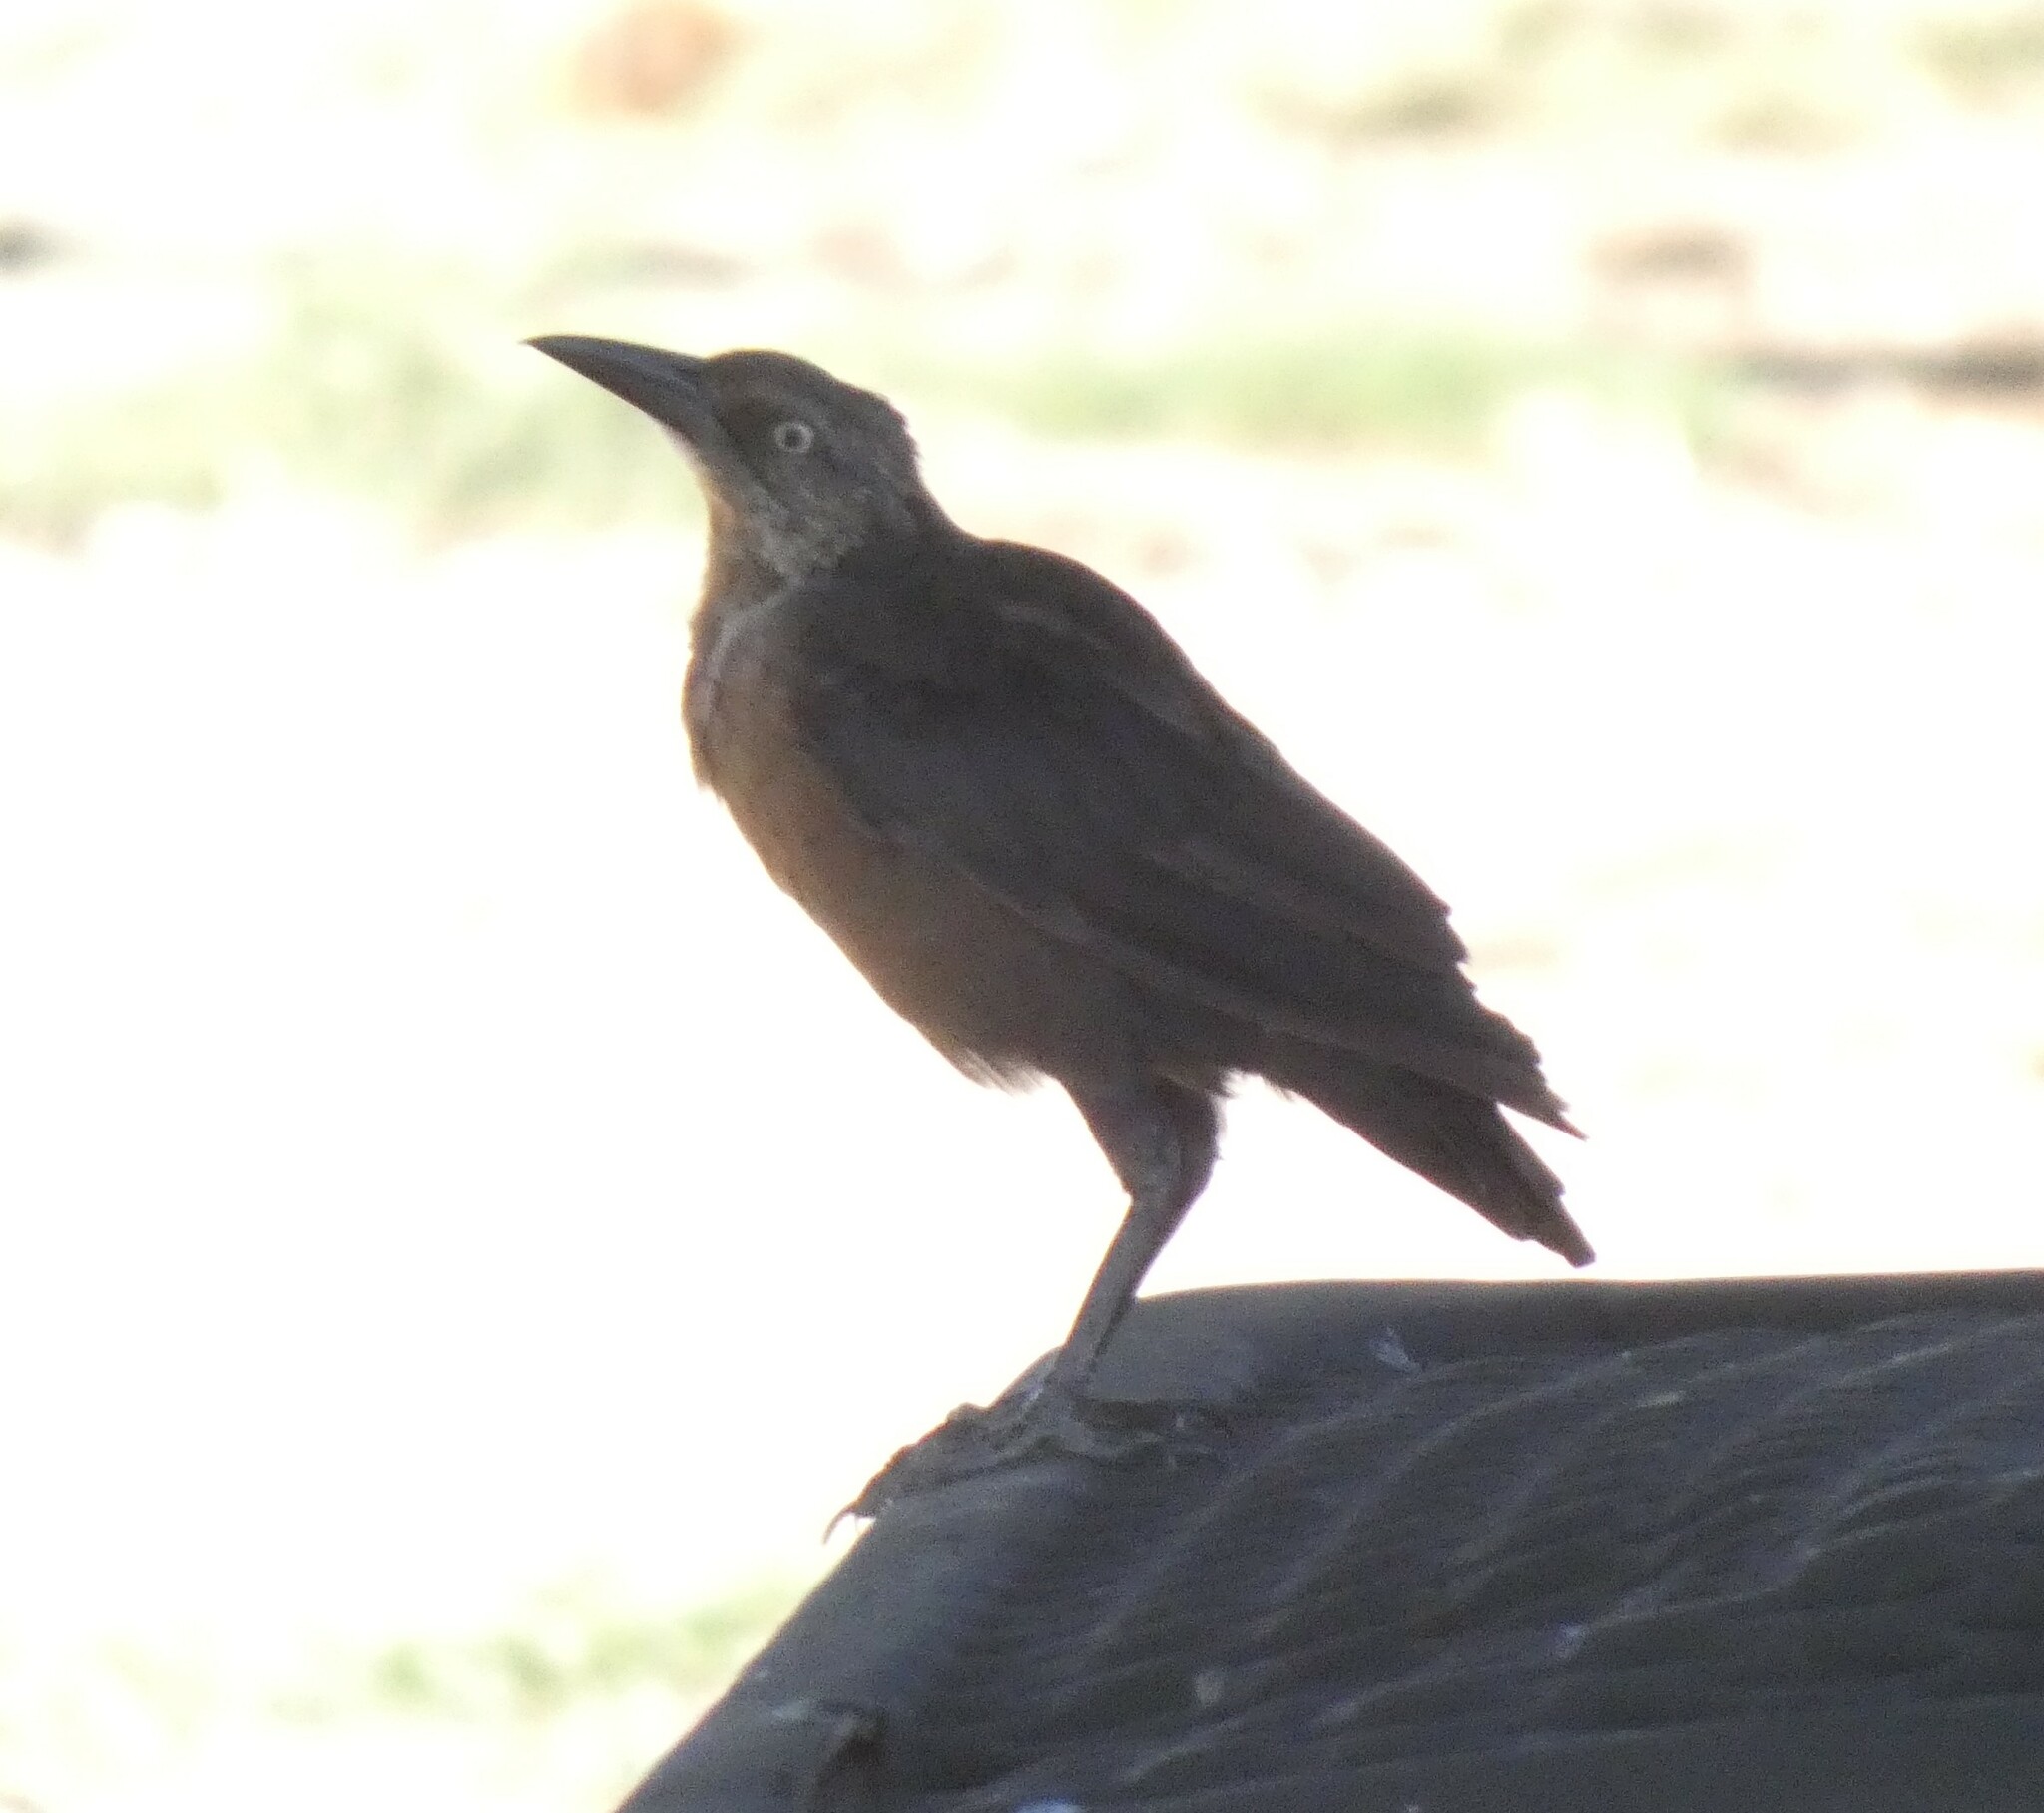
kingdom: Animalia
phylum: Chordata
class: Aves
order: Passeriformes
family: Icteridae
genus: Quiscalus
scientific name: Quiscalus mexicanus
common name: Great-tailed grackle
